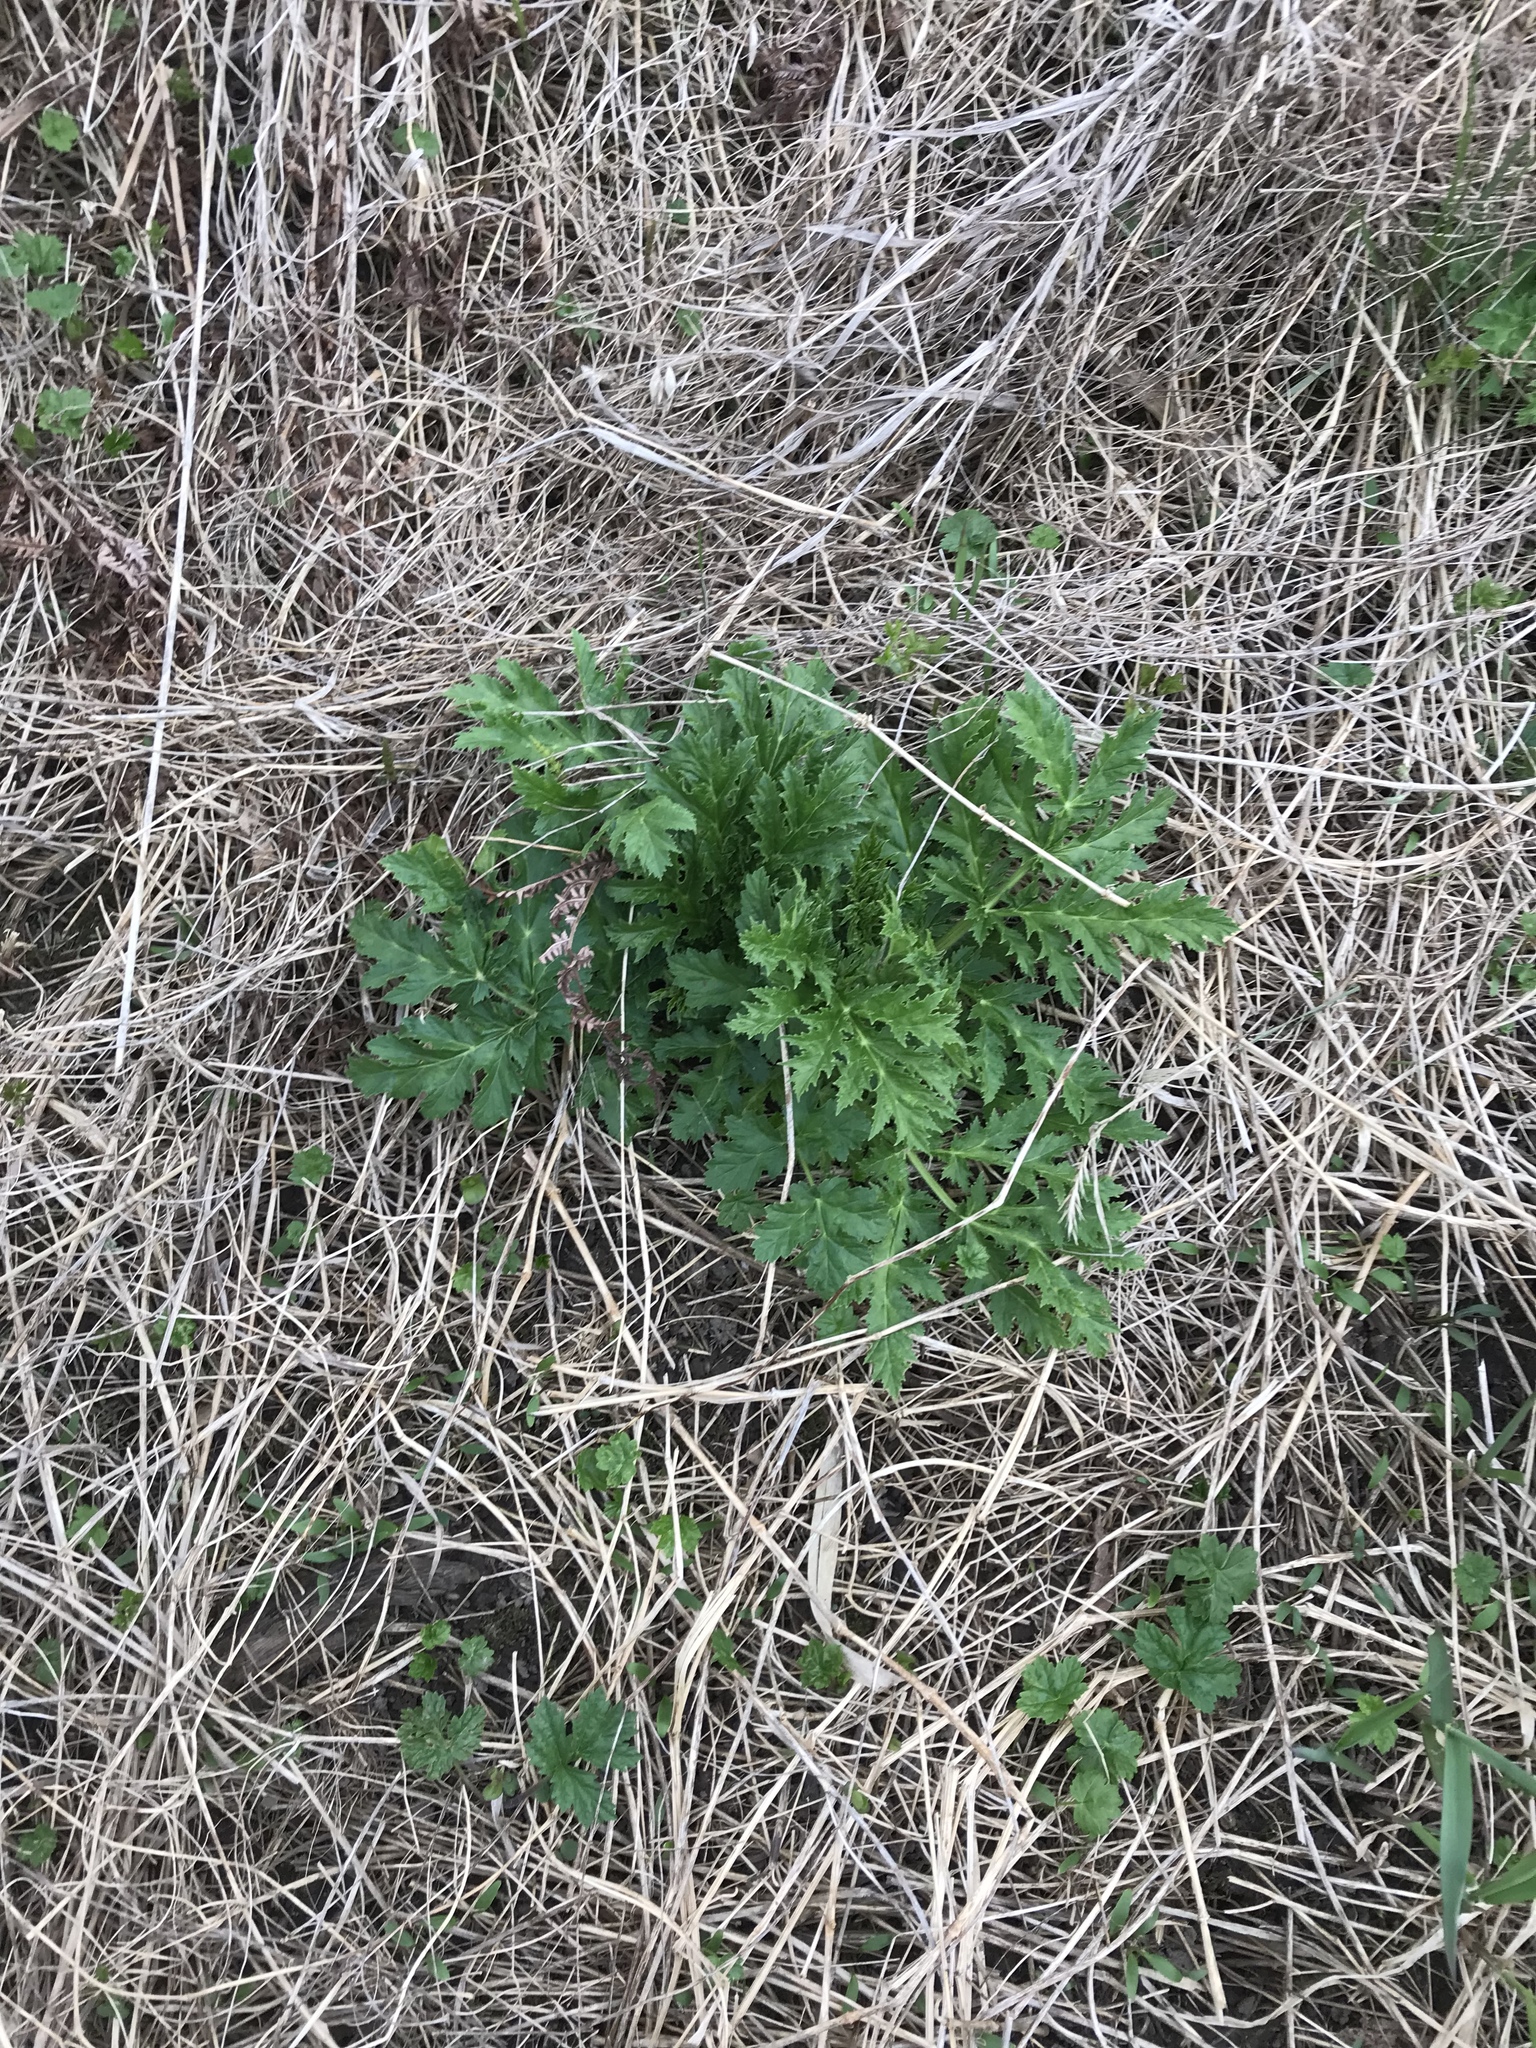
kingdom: Plantae
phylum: Tracheophyta
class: Magnoliopsida
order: Apiales
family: Apiaceae
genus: Heracleum
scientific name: Heracleum mantegazzianum
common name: Giant hogweed
